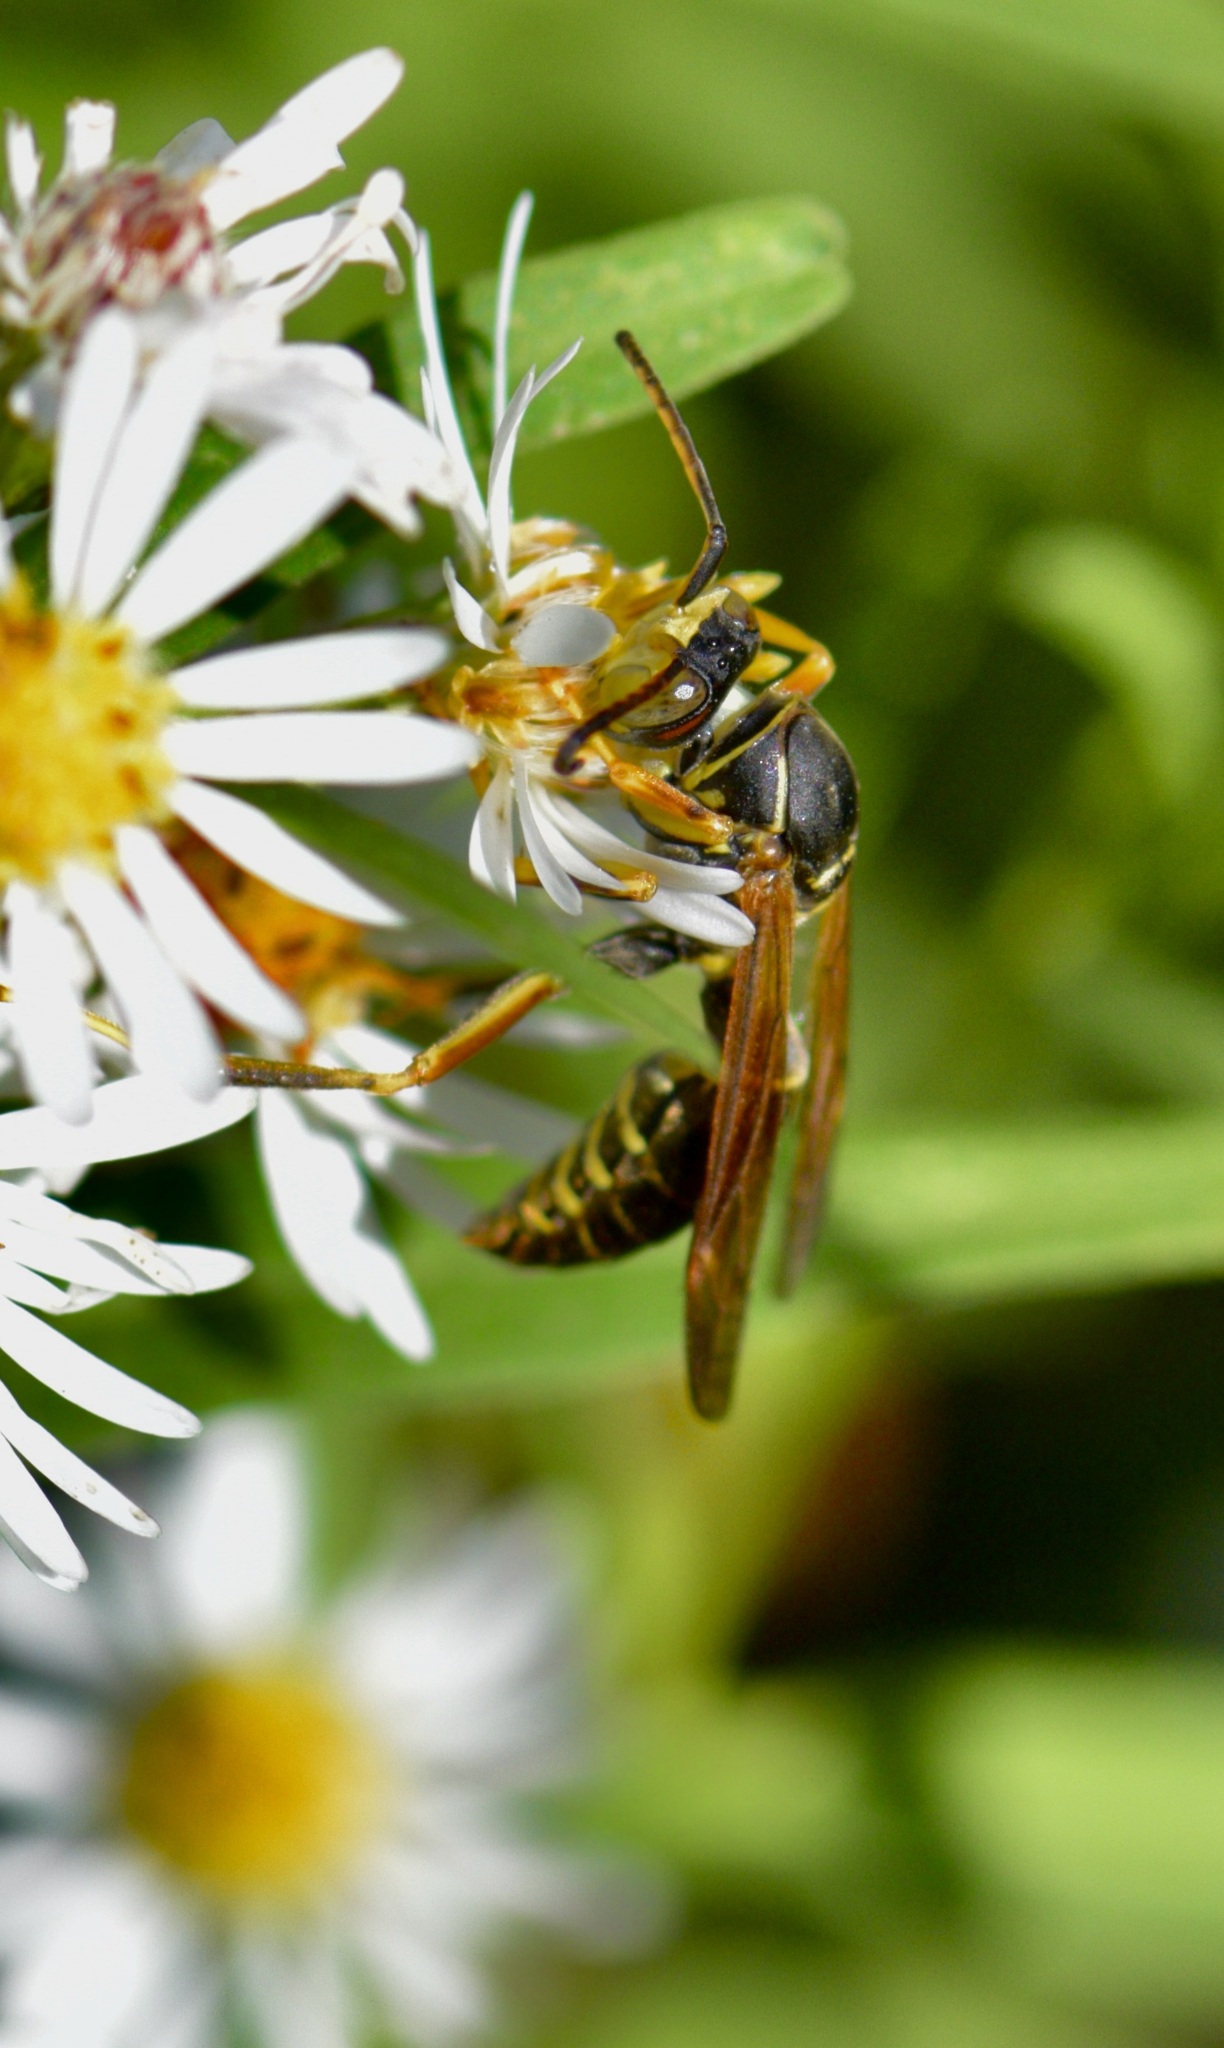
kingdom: Animalia
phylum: Arthropoda
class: Insecta
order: Hymenoptera
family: Eumenidae
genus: Polistes
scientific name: Polistes fuscatus
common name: Dark paper wasp
